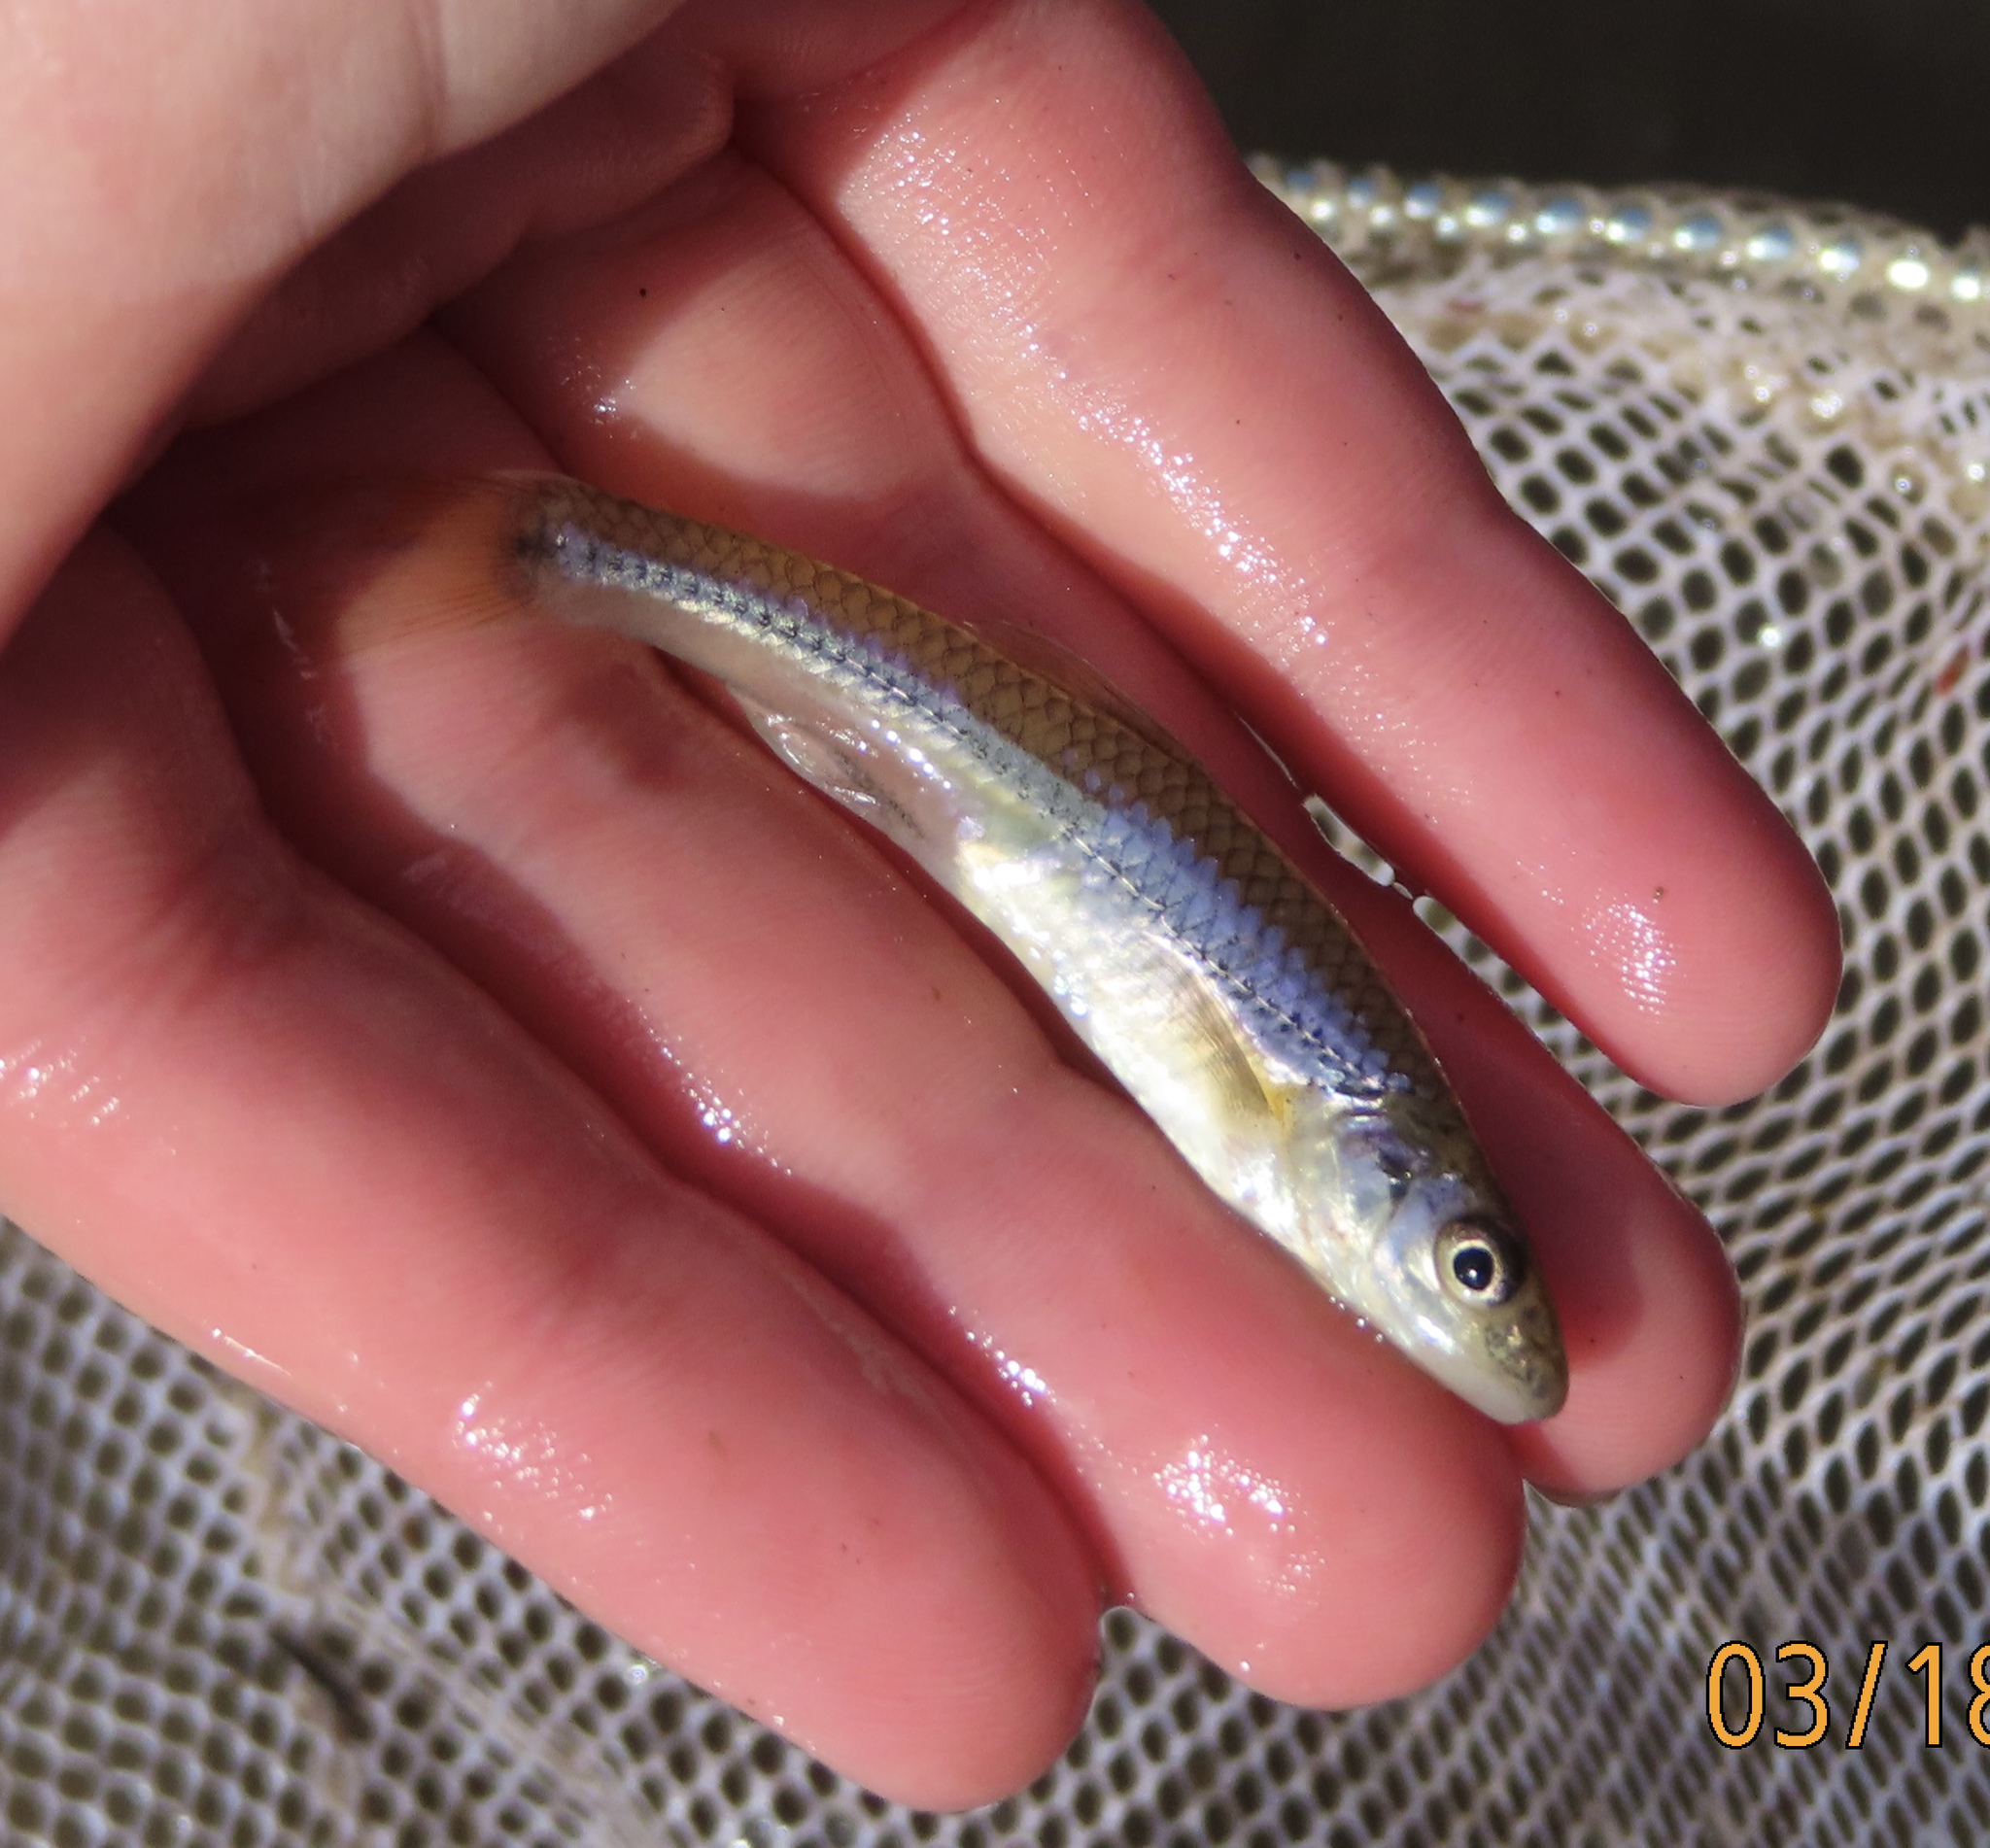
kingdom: Animalia
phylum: Chordata
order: Cypriniformes
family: Cyprinidae
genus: Ericymba
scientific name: Ericymba
